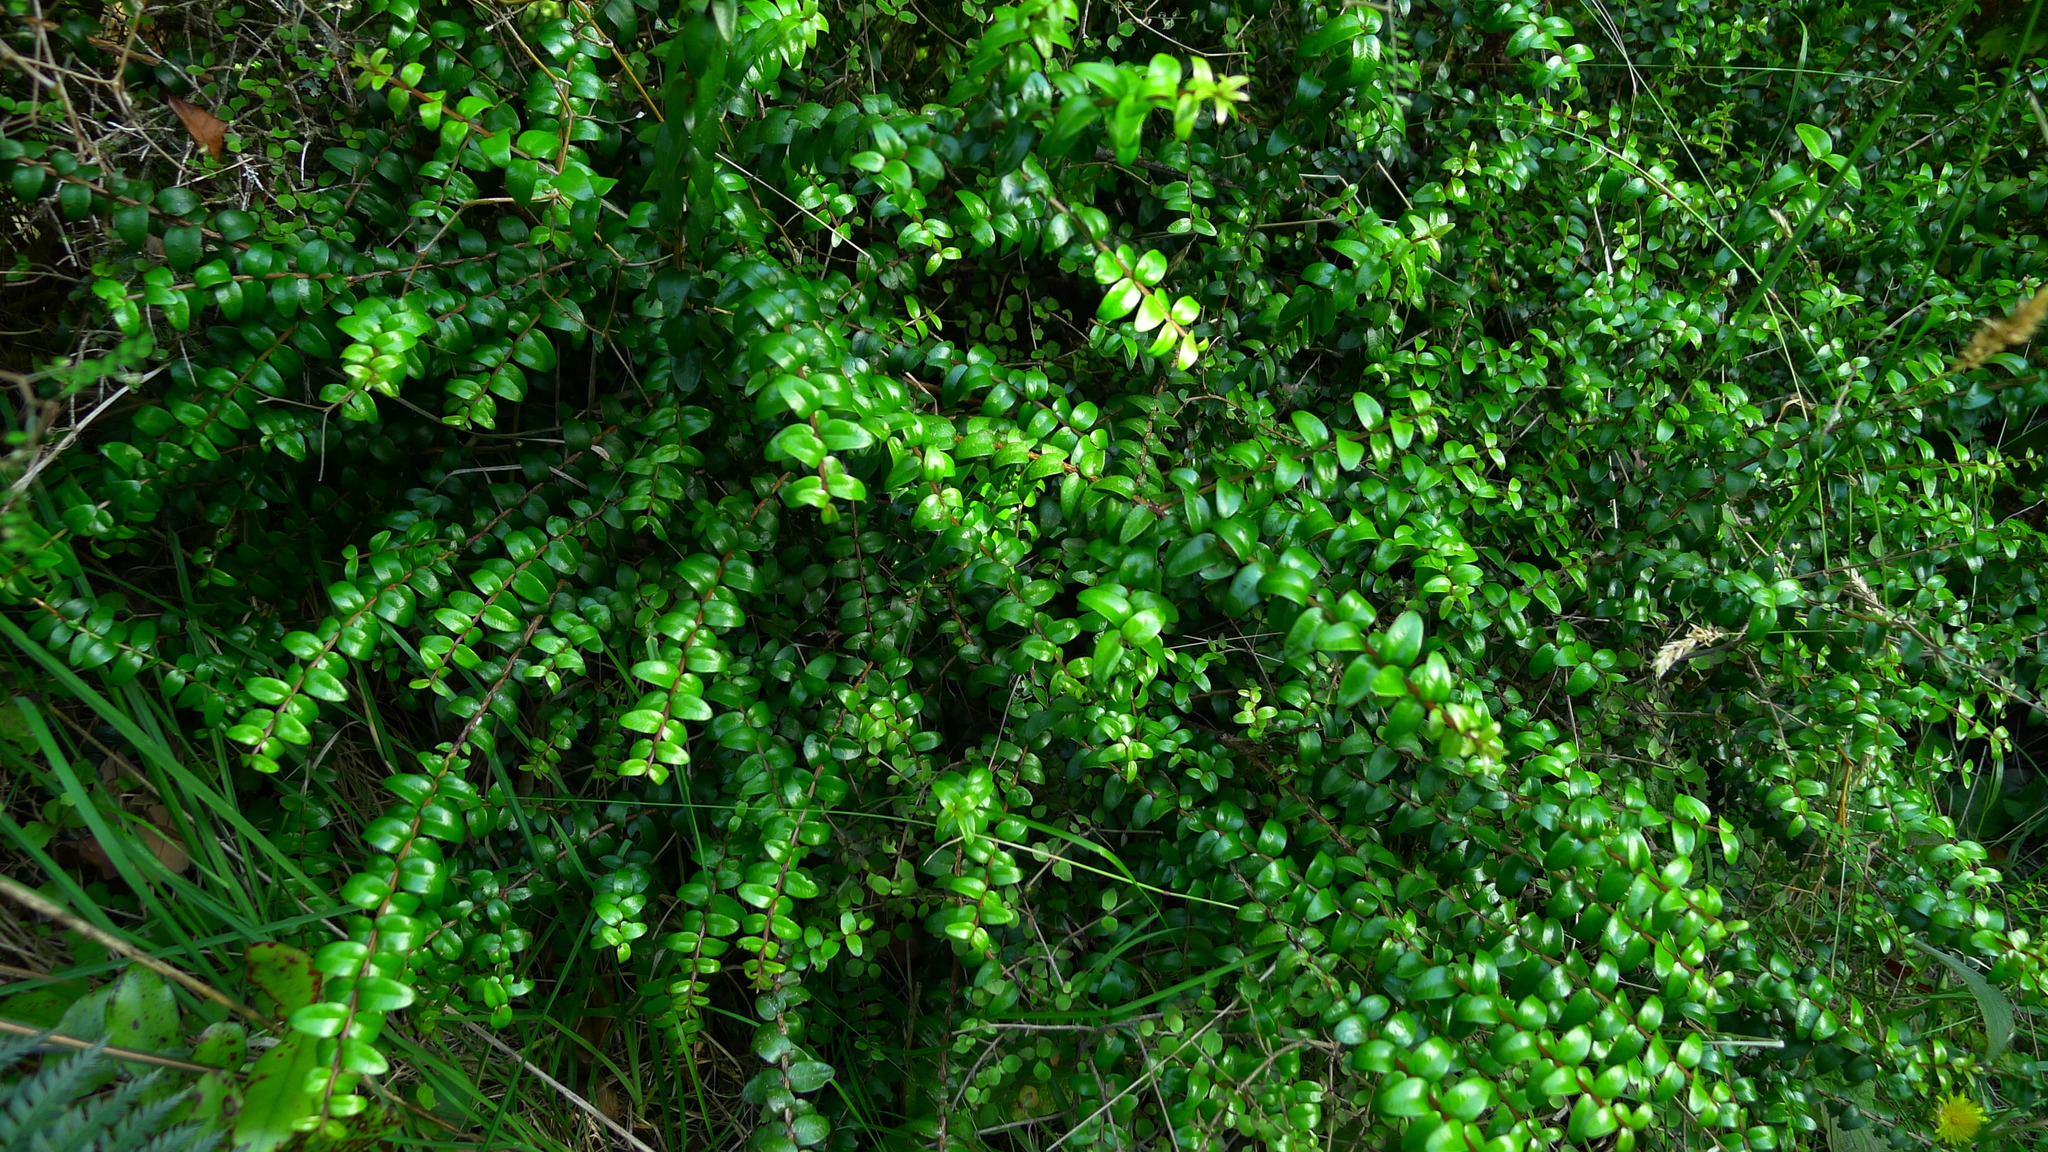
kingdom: Plantae
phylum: Tracheophyta
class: Magnoliopsida
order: Myrtales
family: Myrtaceae
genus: Metrosideros
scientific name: Metrosideros diffusa
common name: Small ratavine
